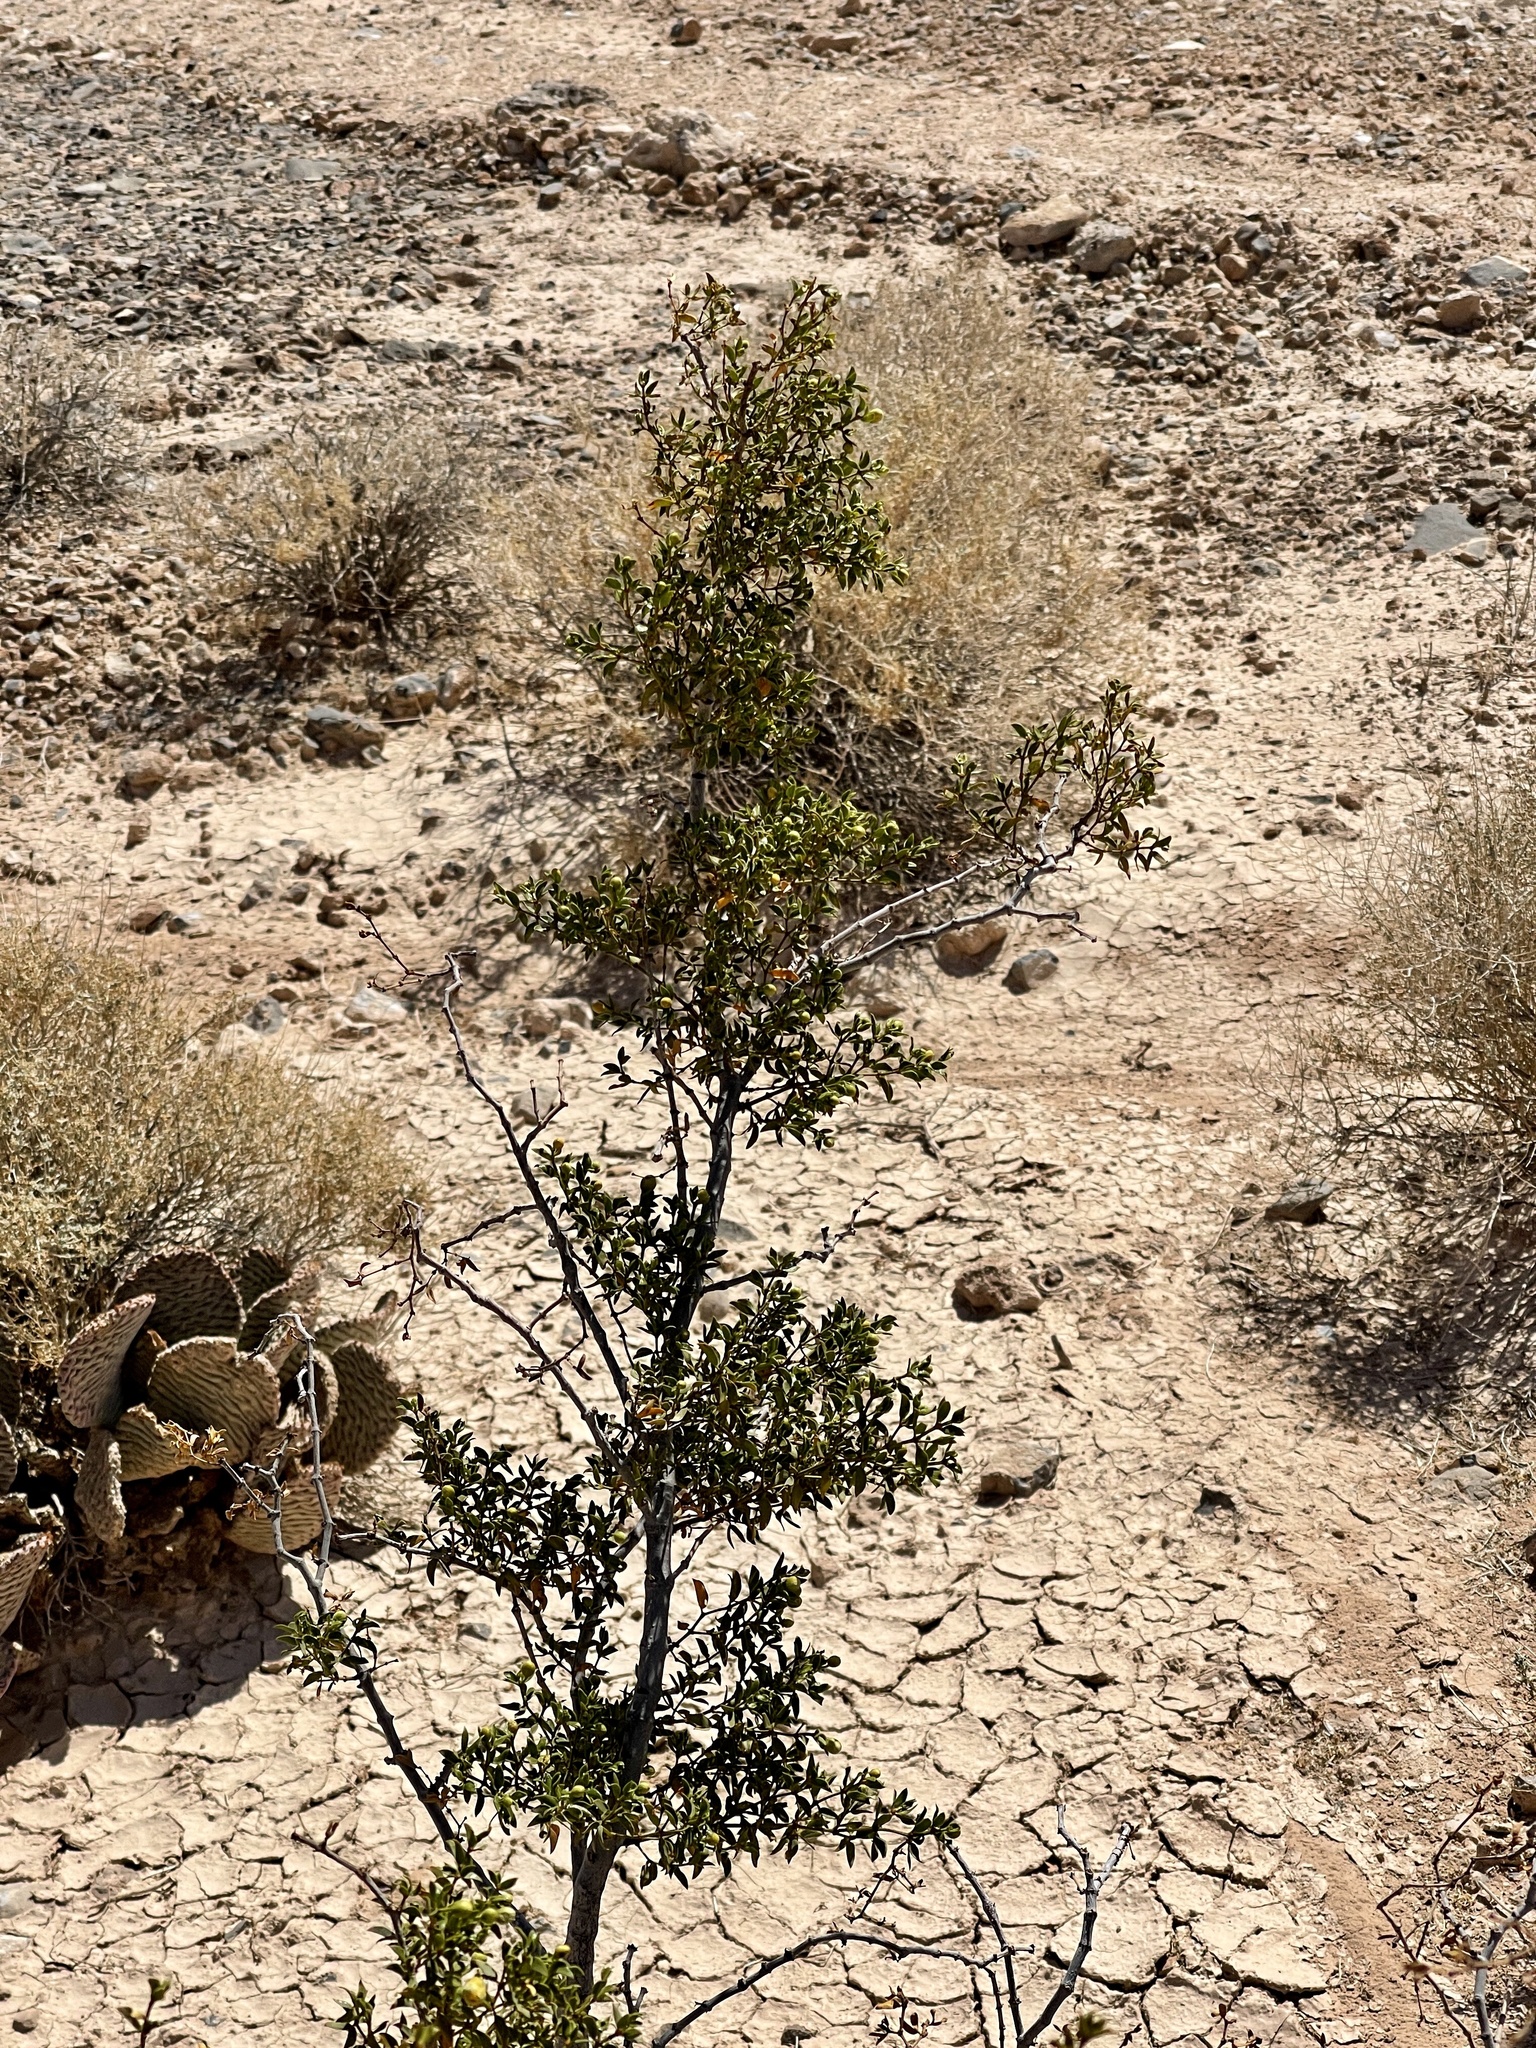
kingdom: Plantae
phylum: Tracheophyta
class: Magnoliopsida
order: Zygophyllales
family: Zygophyllaceae
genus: Larrea
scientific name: Larrea tridentata
